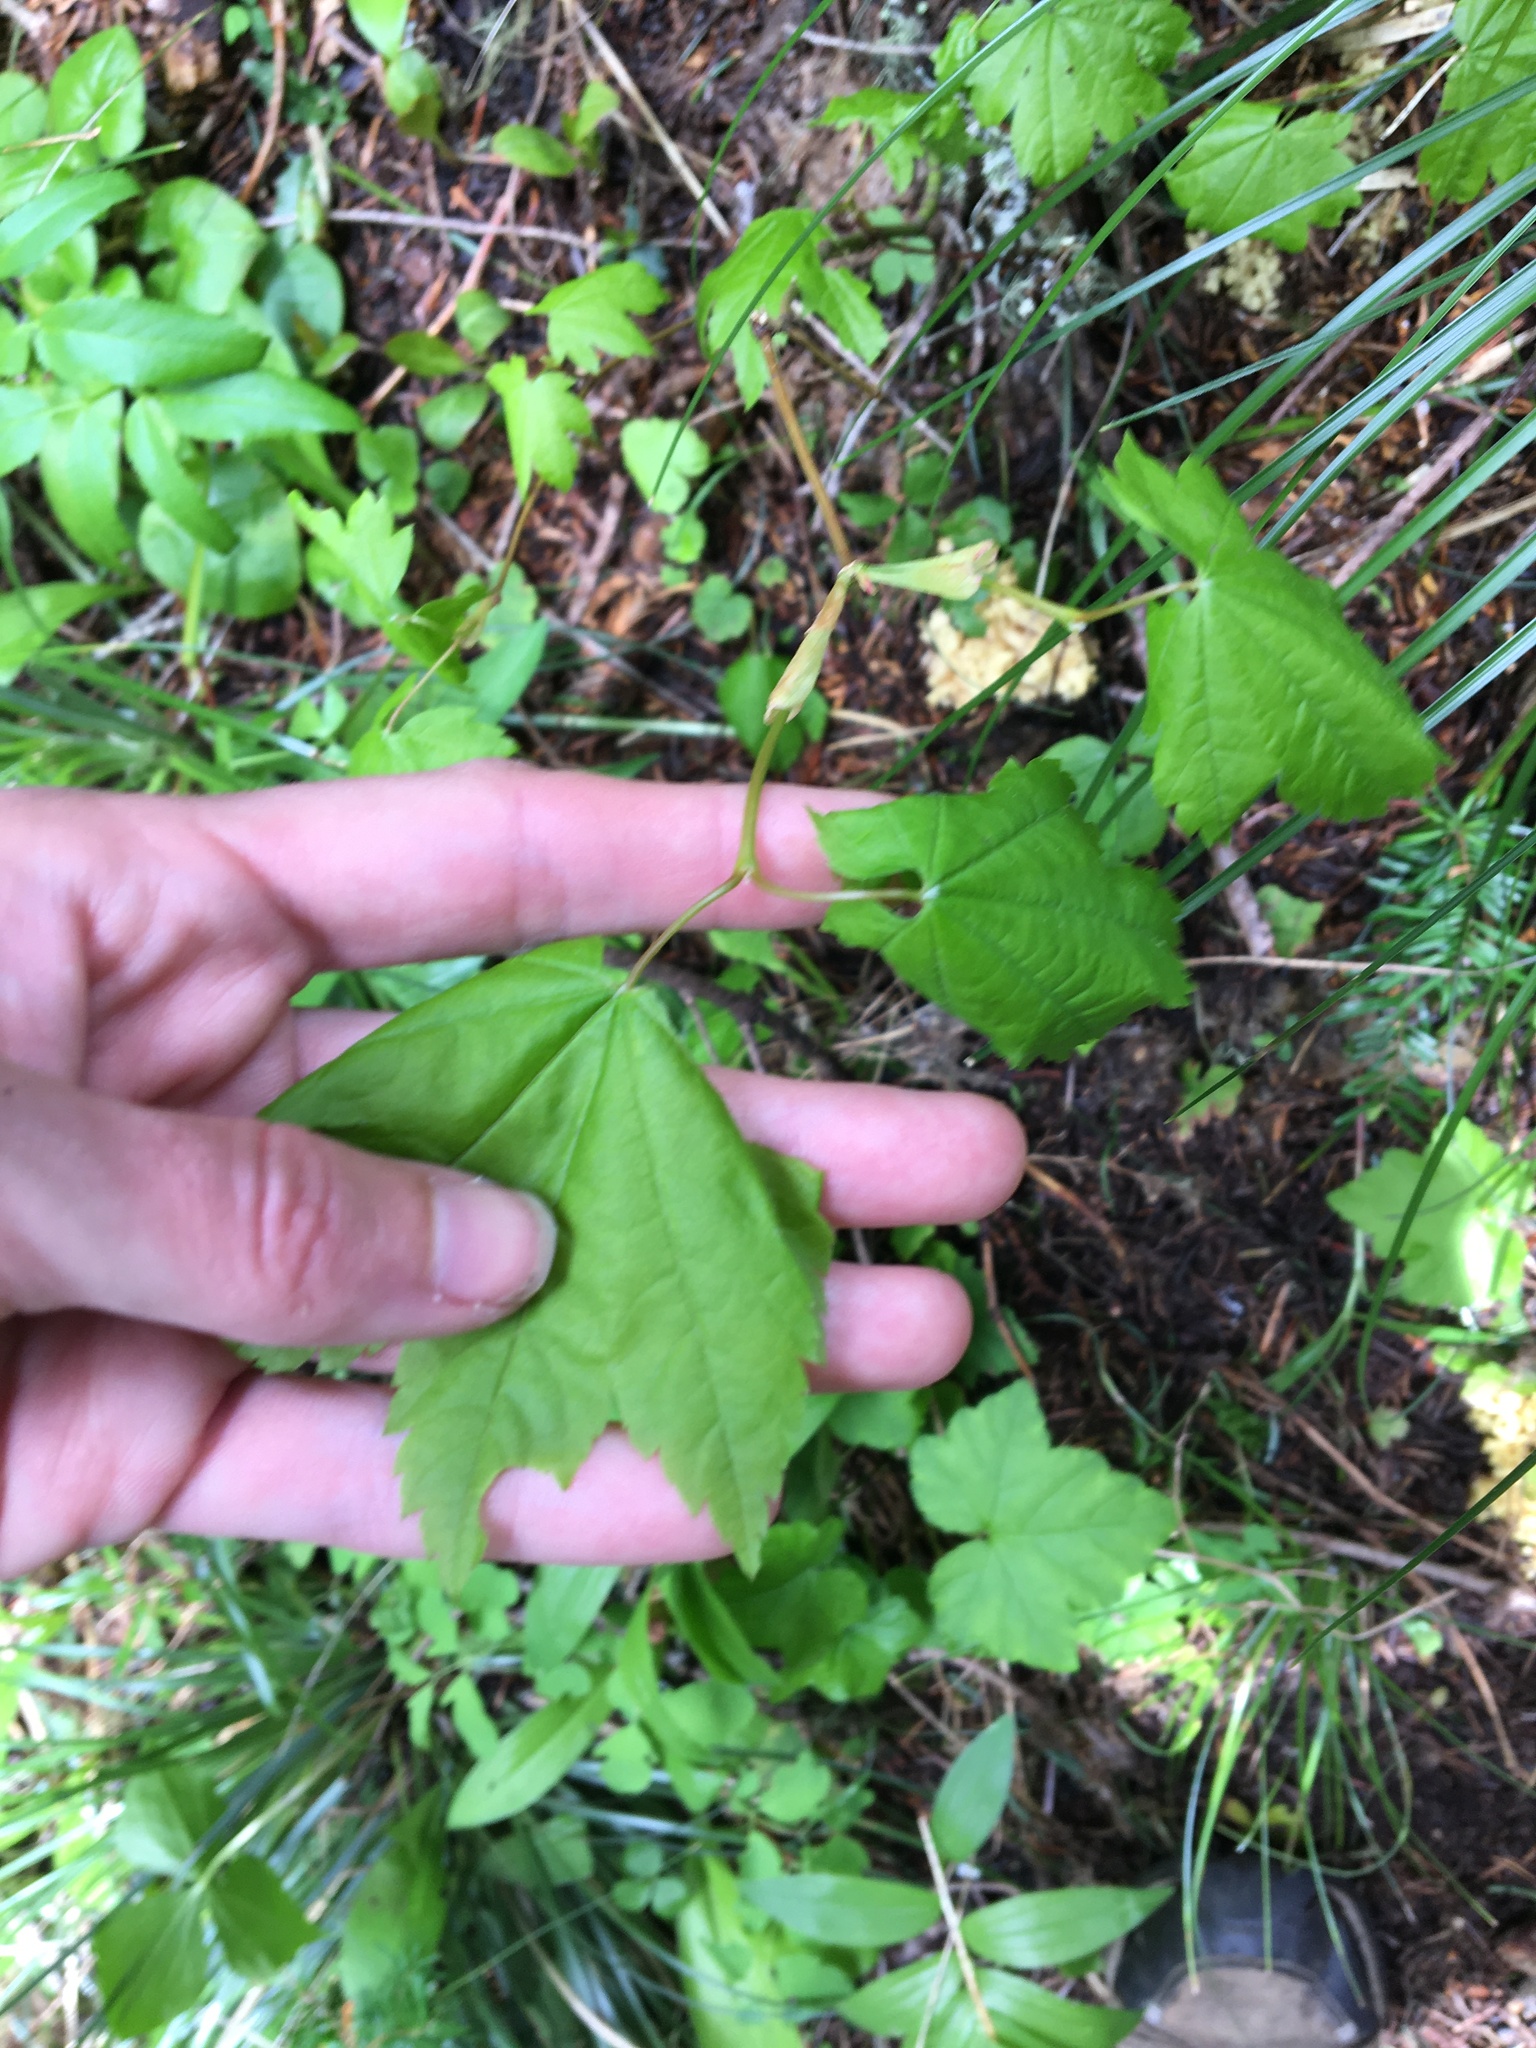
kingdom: Plantae
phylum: Tracheophyta
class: Magnoliopsida
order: Sapindales
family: Sapindaceae
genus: Acer
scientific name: Acer circinatum
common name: Vine maple
